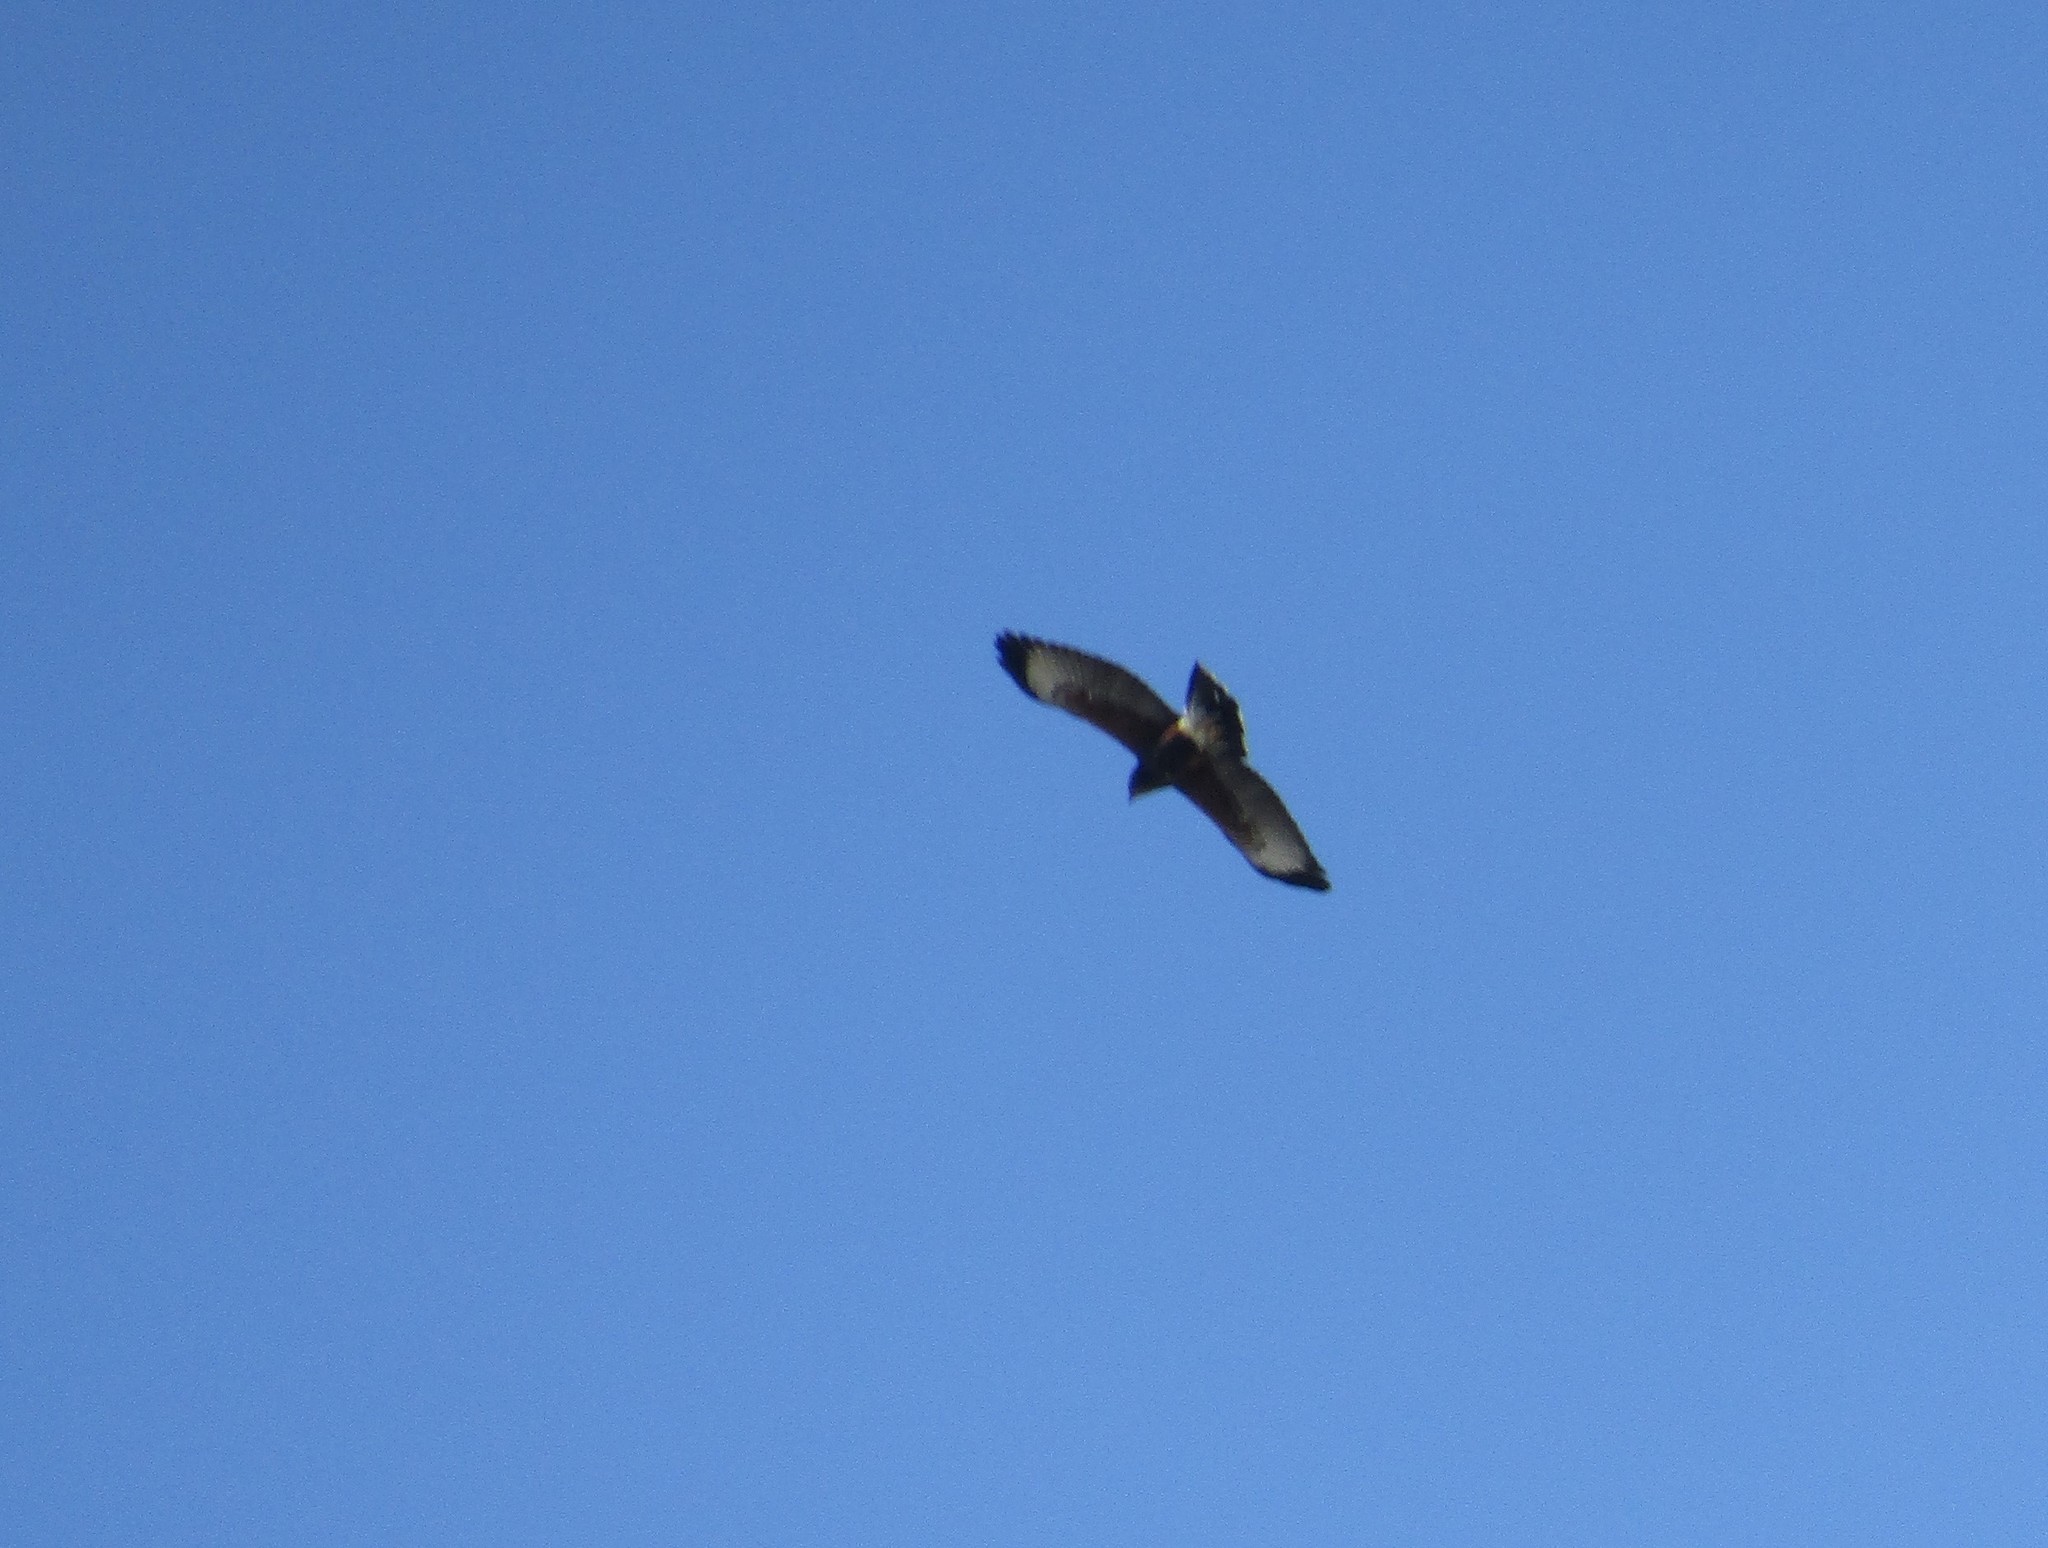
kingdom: Animalia
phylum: Chordata
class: Aves
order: Accipitriformes
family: Accipitridae
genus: Parabuteo
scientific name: Parabuteo unicinctus
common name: Harris's hawk
